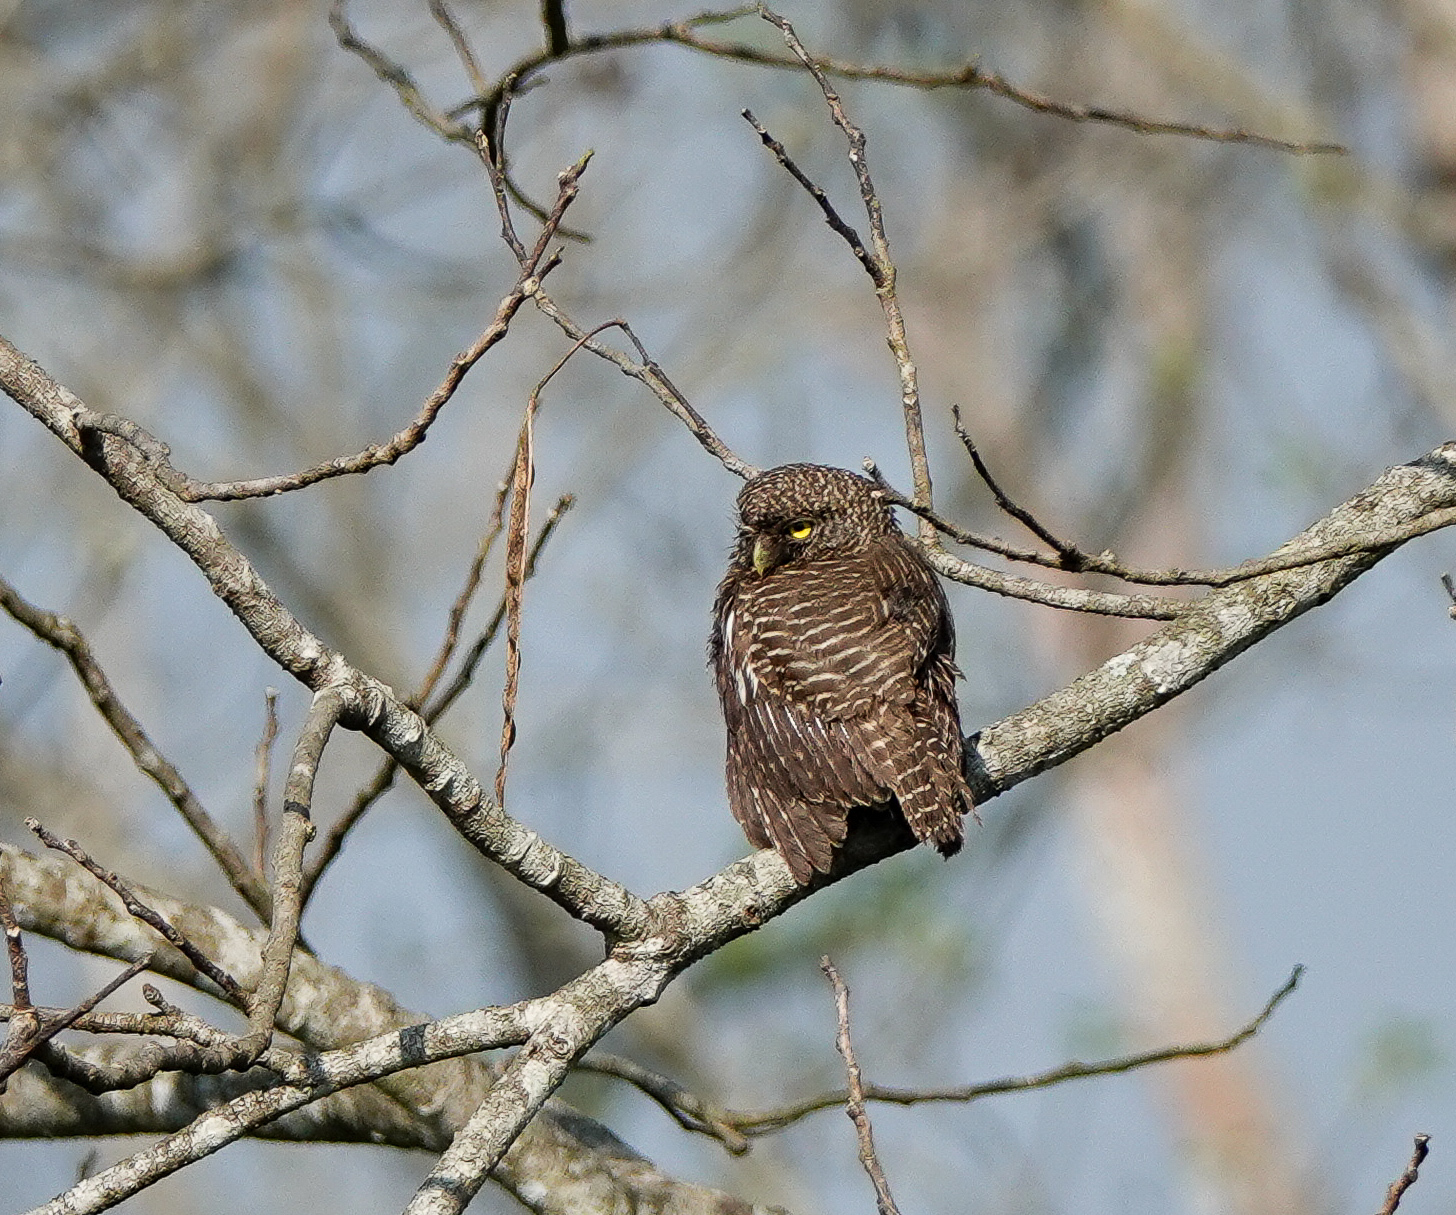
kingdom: Animalia
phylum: Chordata
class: Aves
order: Strigiformes
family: Strigidae
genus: Glaucidium
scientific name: Glaucidium cuculoides
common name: Asian barred owlet
